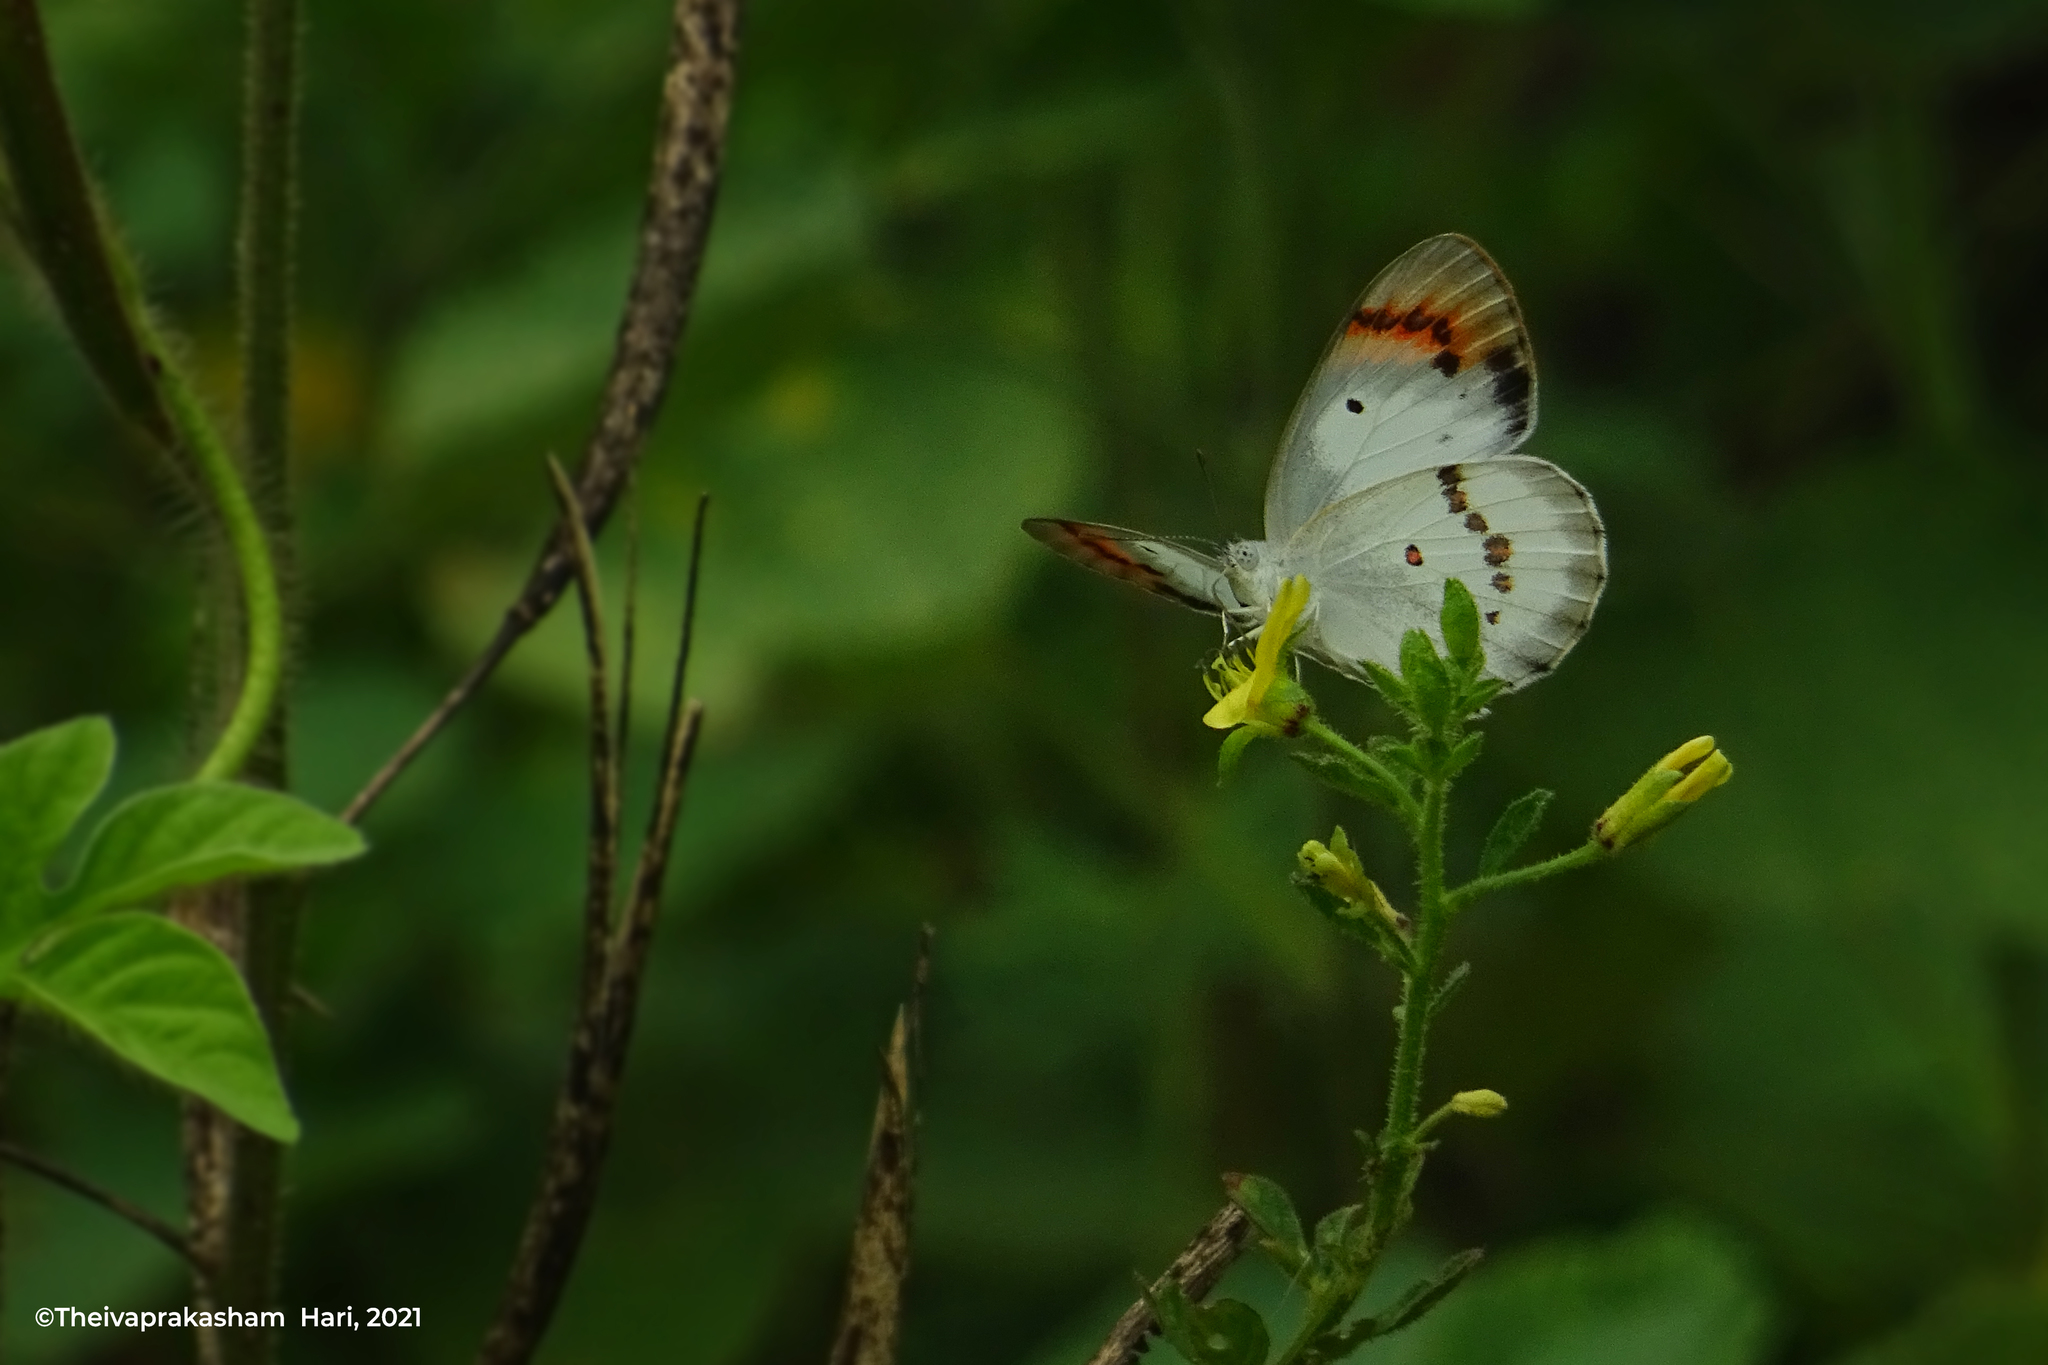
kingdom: Animalia
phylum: Arthropoda
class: Insecta
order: Lepidoptera
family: Pieridae
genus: Colotis
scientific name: Colotis danae
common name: Crimson tip
